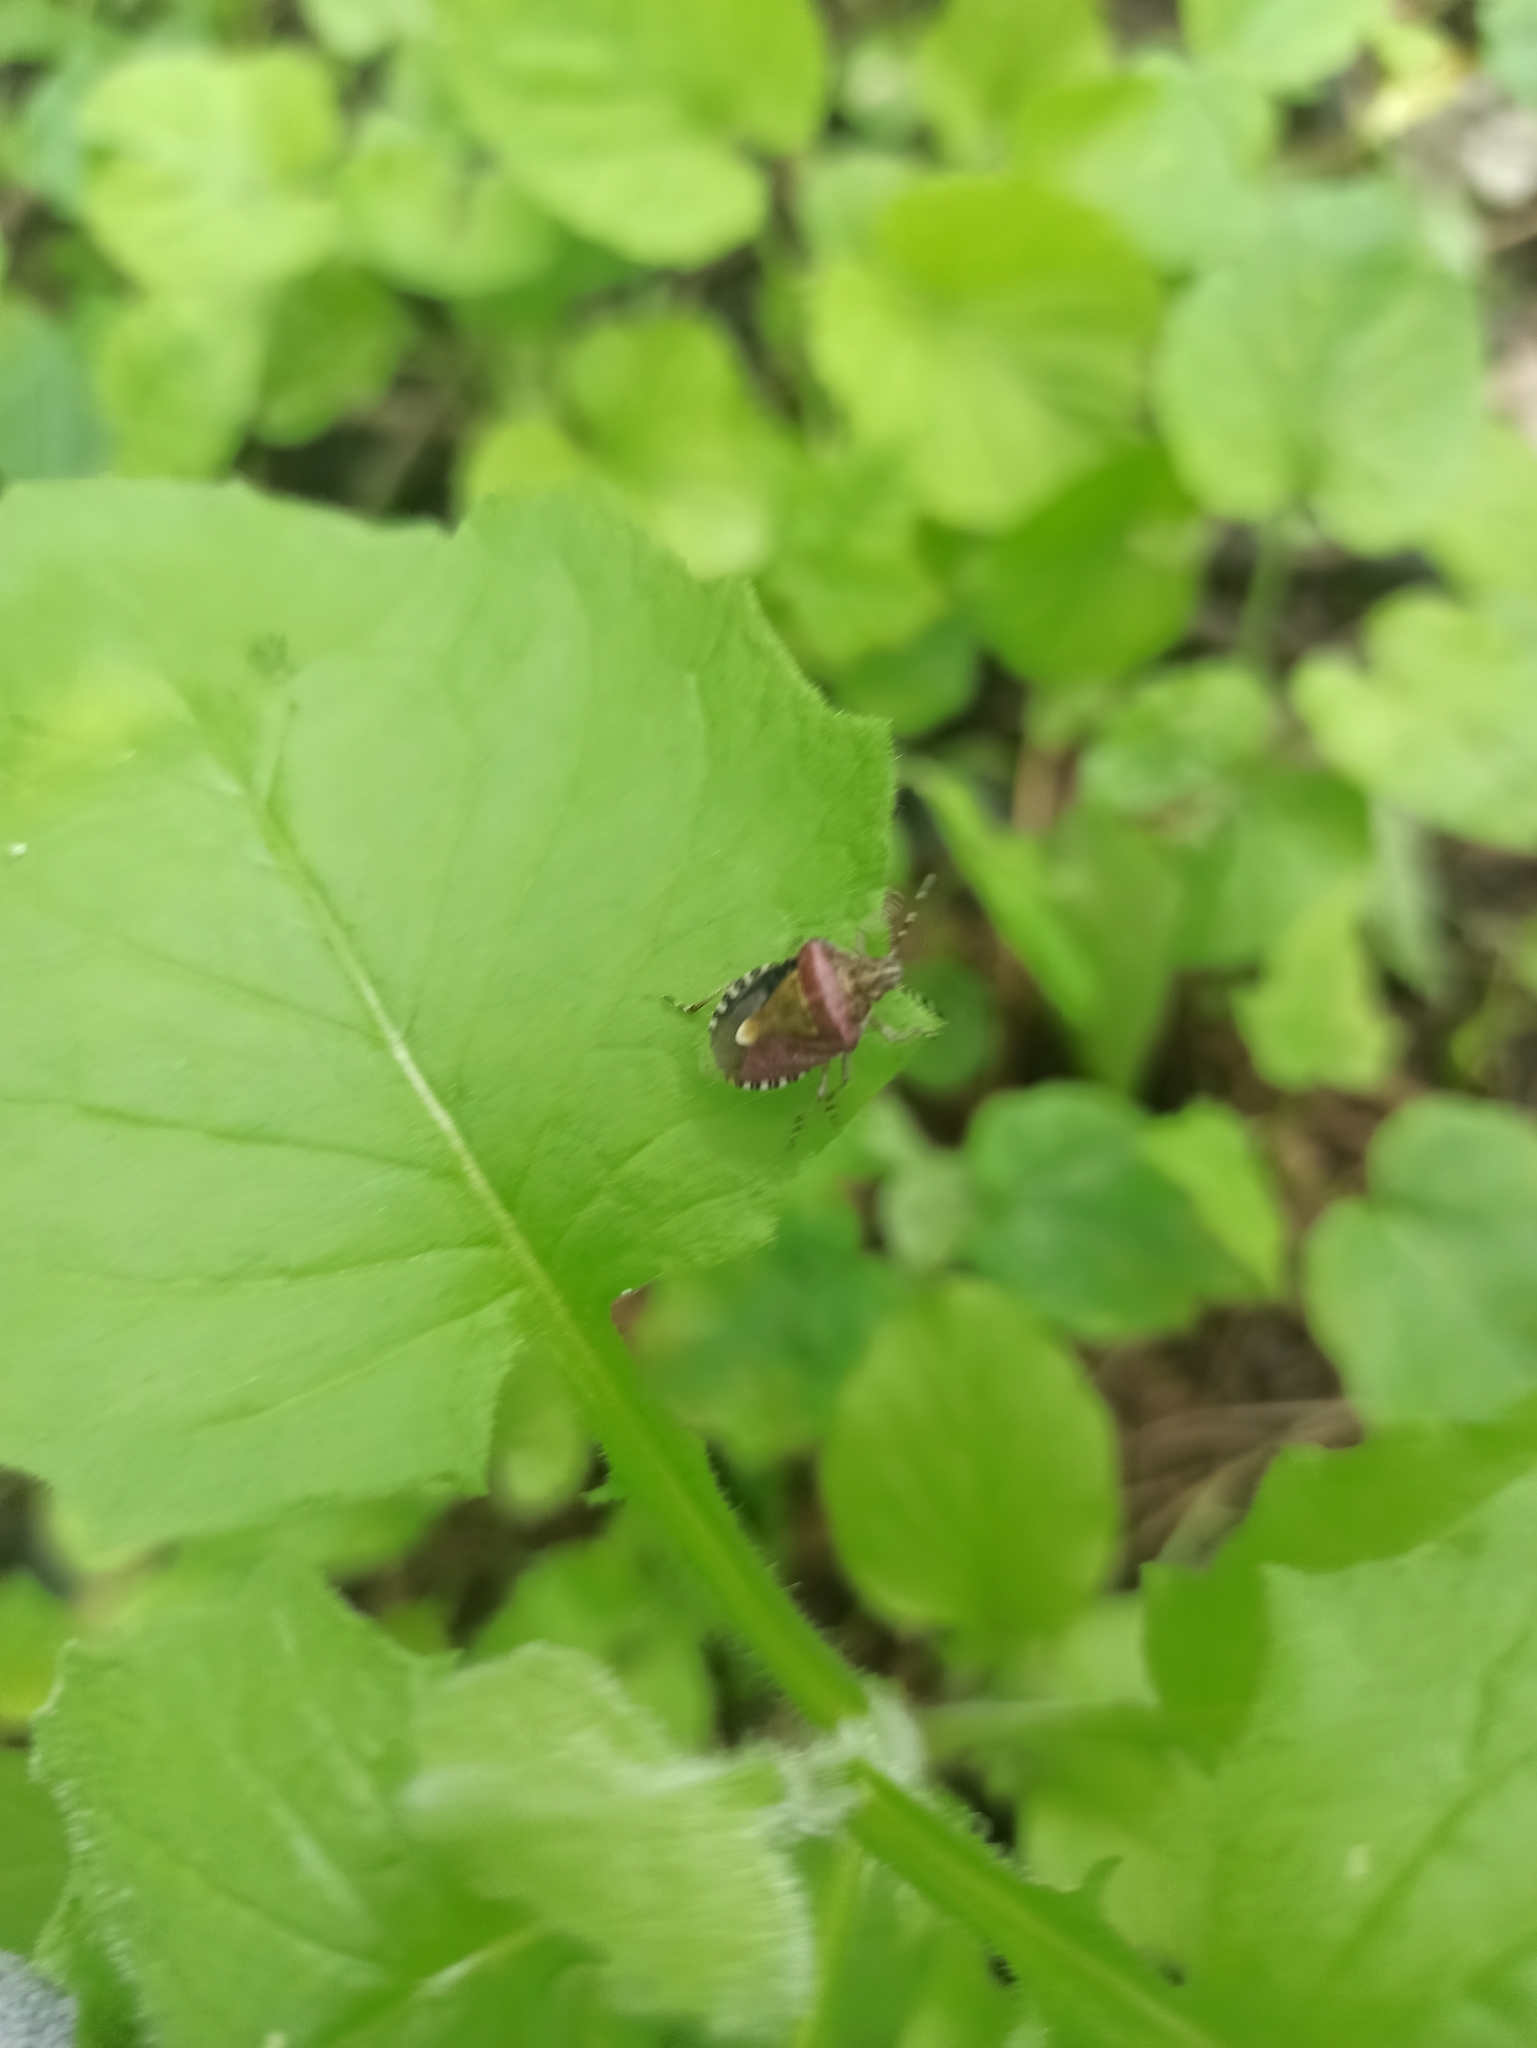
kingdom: Animalia
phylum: Arthropoda
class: Insecta
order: Hemiptera
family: Pentatomidae
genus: Dolycoris
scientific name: Dolycoris baccarum
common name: Sloe bug
